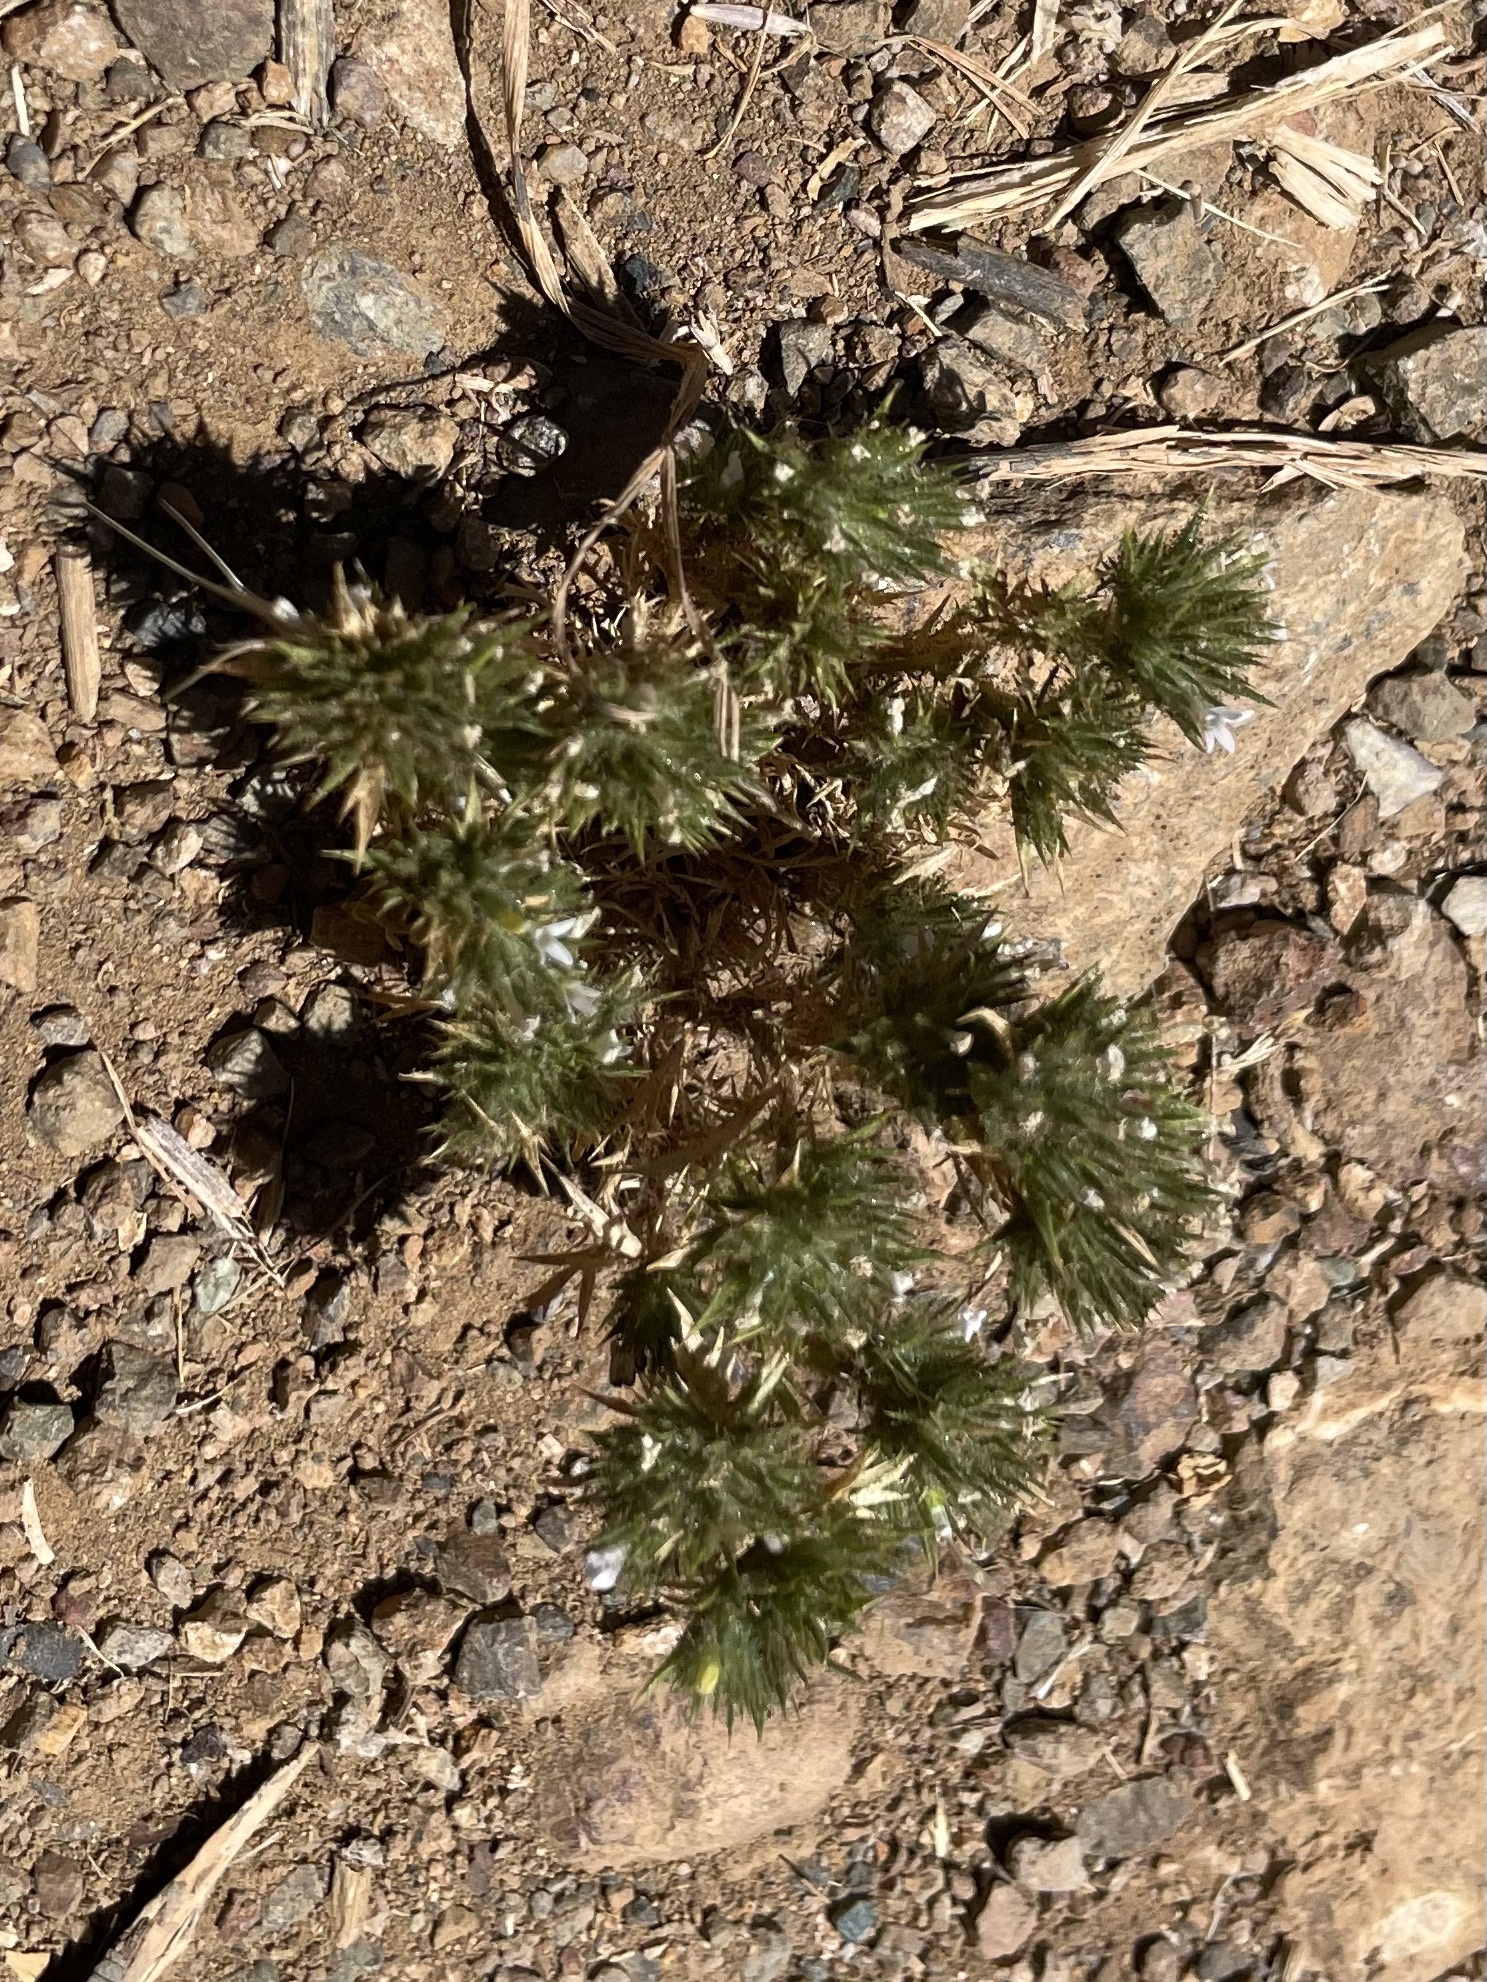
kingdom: Plantae
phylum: Tracheophyta
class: Magnoliopsida
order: Ericales
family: Polemoniaceae
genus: Navarretia
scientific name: Navarretia squarrosa
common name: Skunkweed
